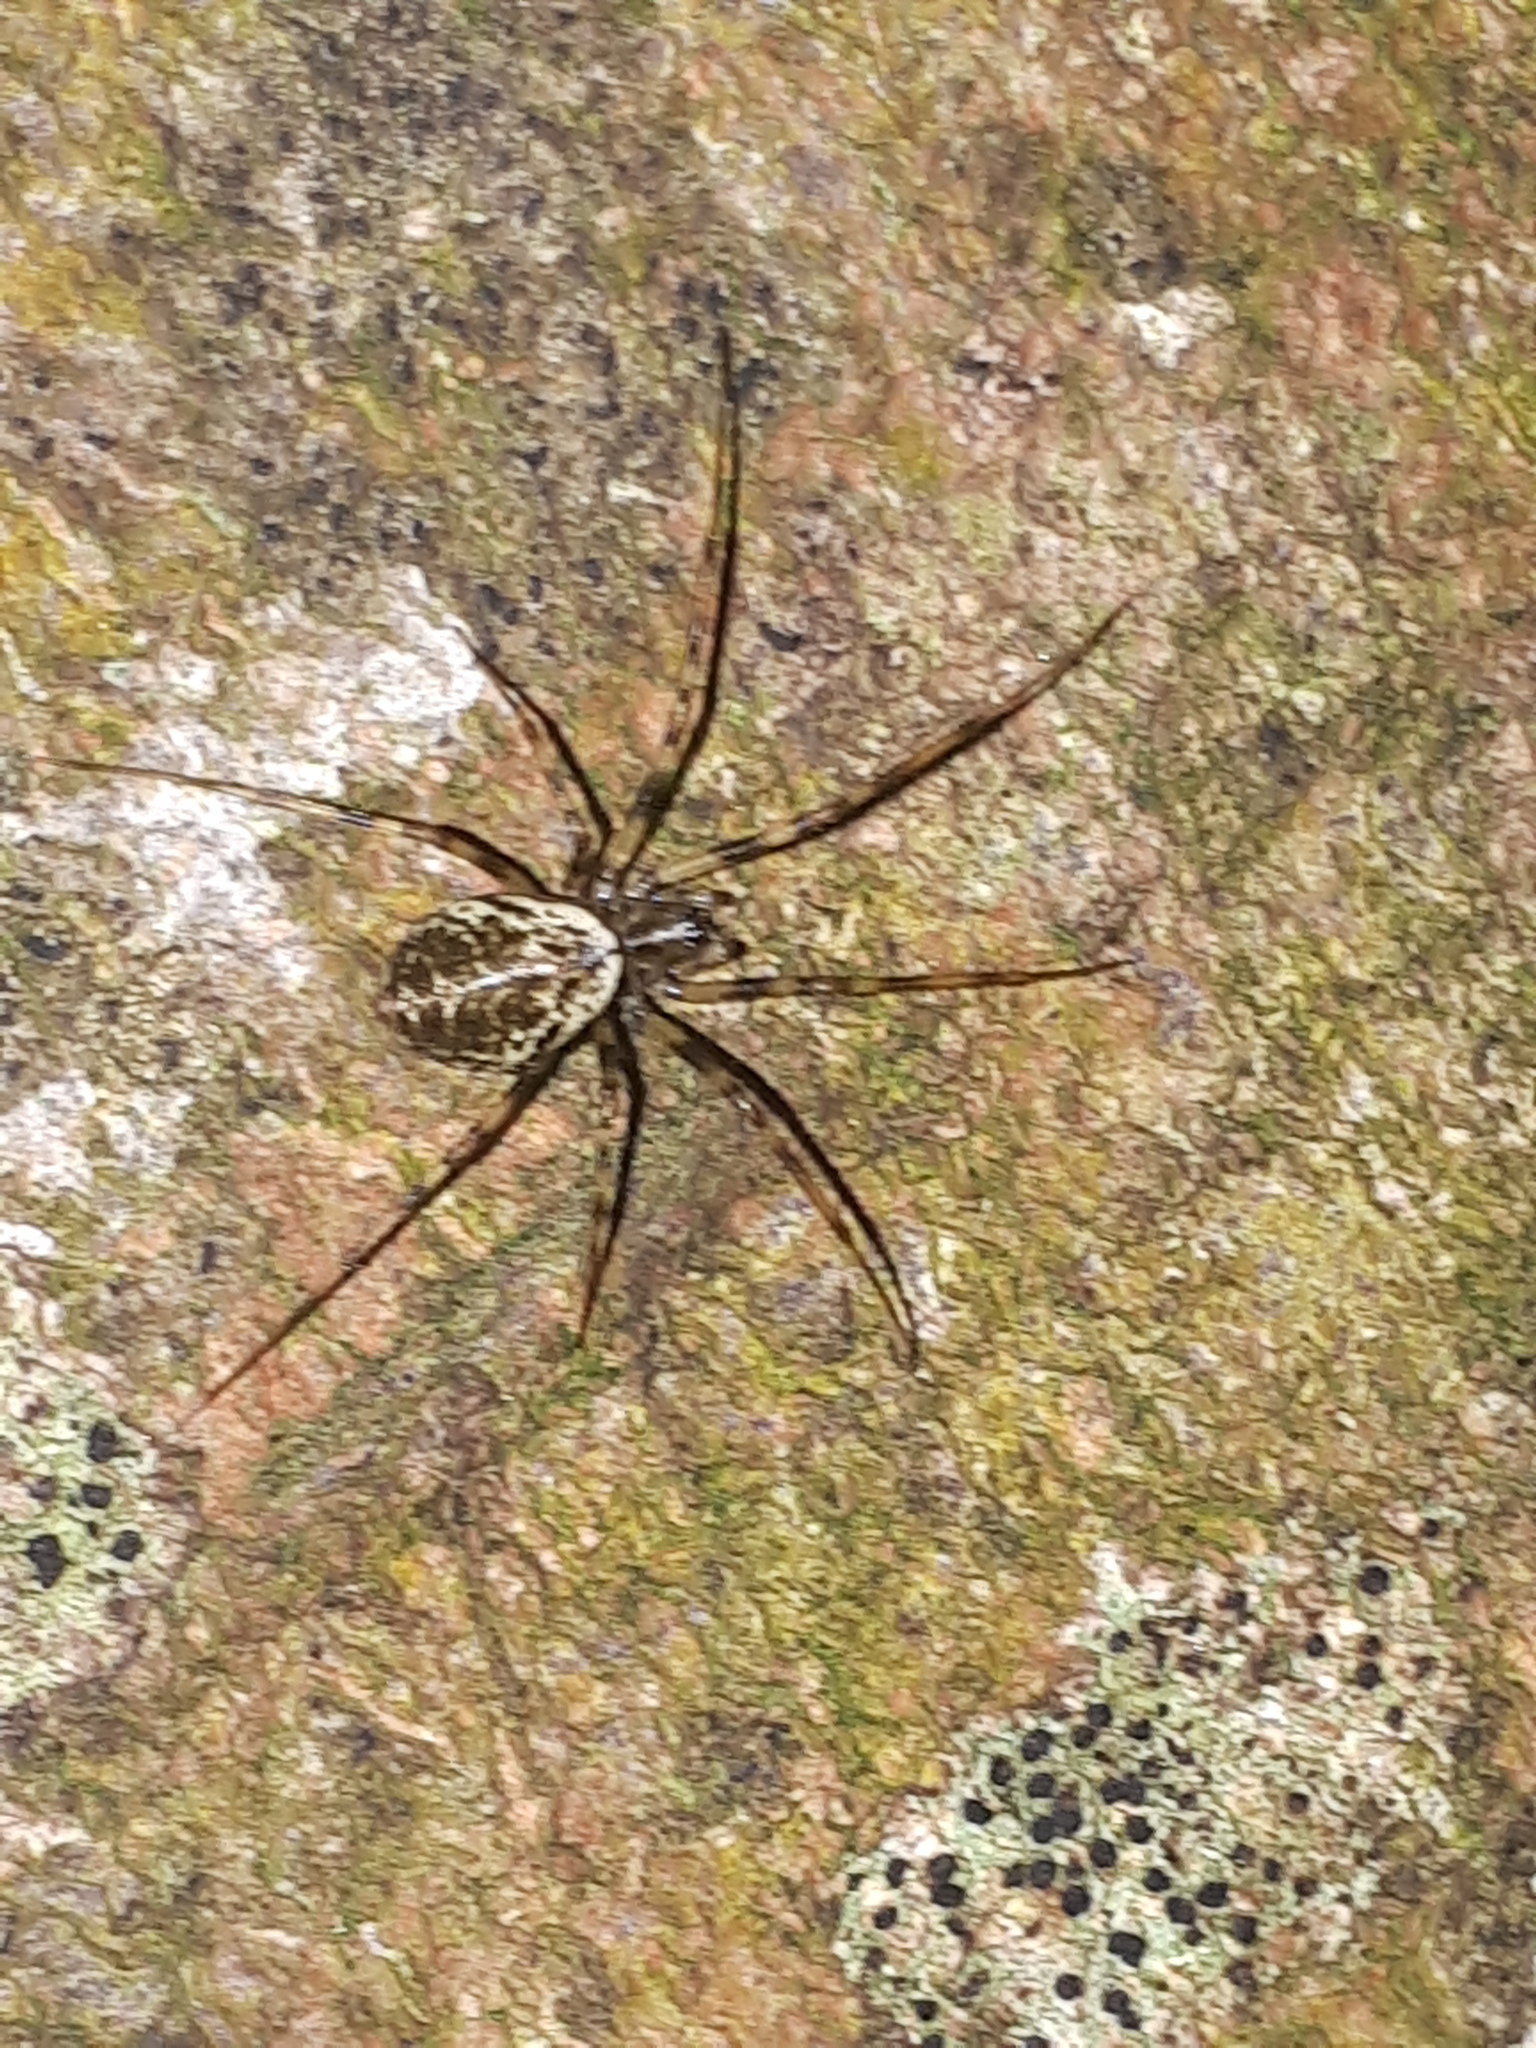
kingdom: Animalia
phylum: Arthropoda
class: Arachnida
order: Araneae
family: Linyphiidae
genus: Drapetisca
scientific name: Drapetisca socialis
